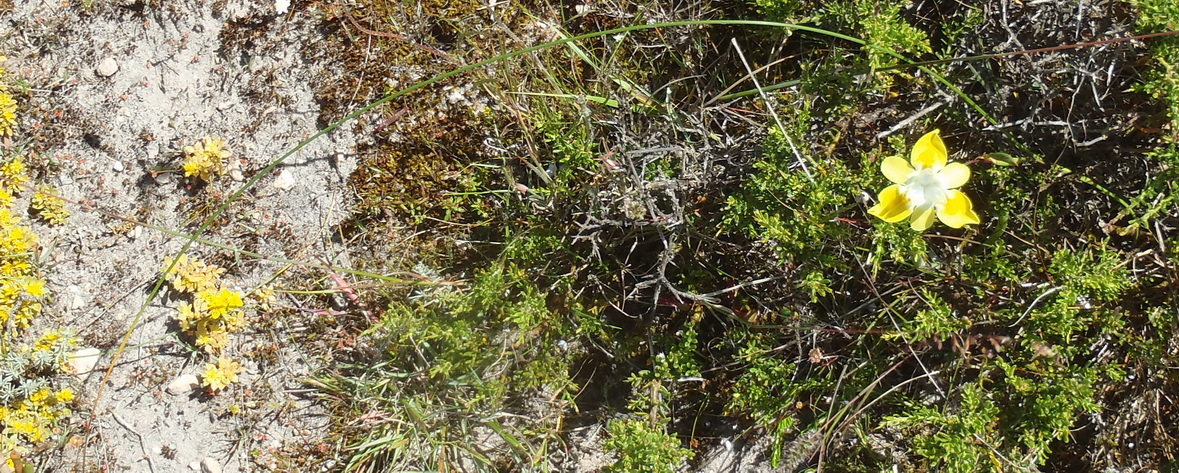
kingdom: Plantae
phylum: Tracheophyta
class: Liliopsida
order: Asparagales
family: Iridaceae
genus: Moraea
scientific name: Moraea fugax
